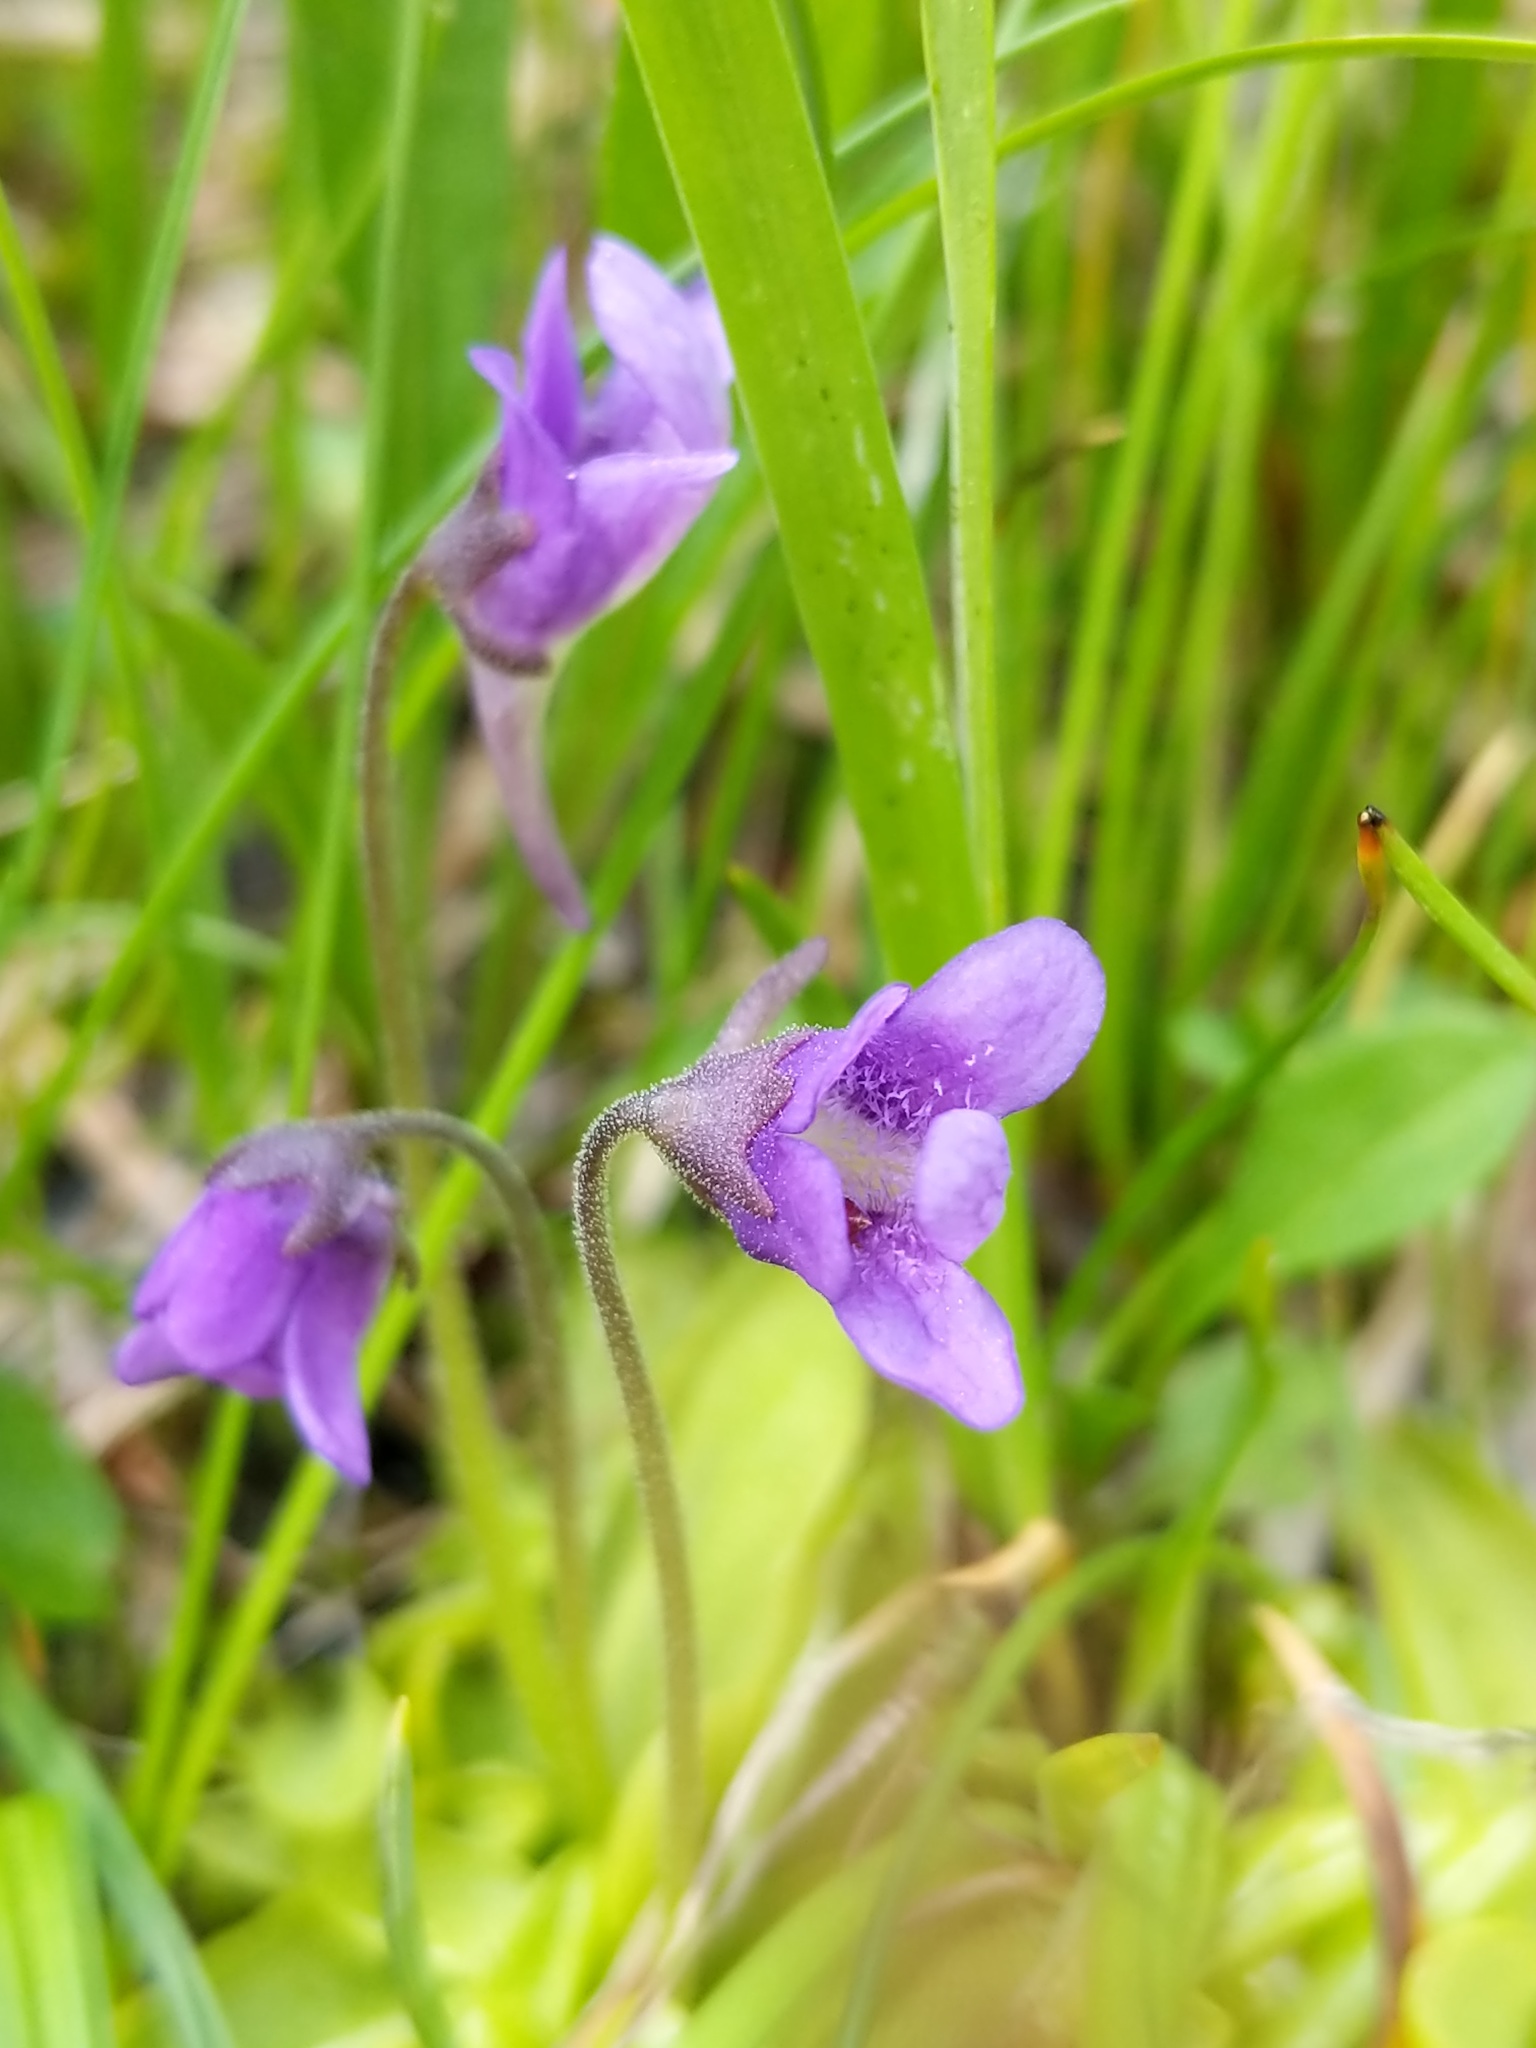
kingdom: Plantae
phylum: Tracheophyta
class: Magnoliopsida
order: Lamiales
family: Lentibulariaceae
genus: Pinguicula
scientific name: Pinguicula vulgaris
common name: Common butterwort
